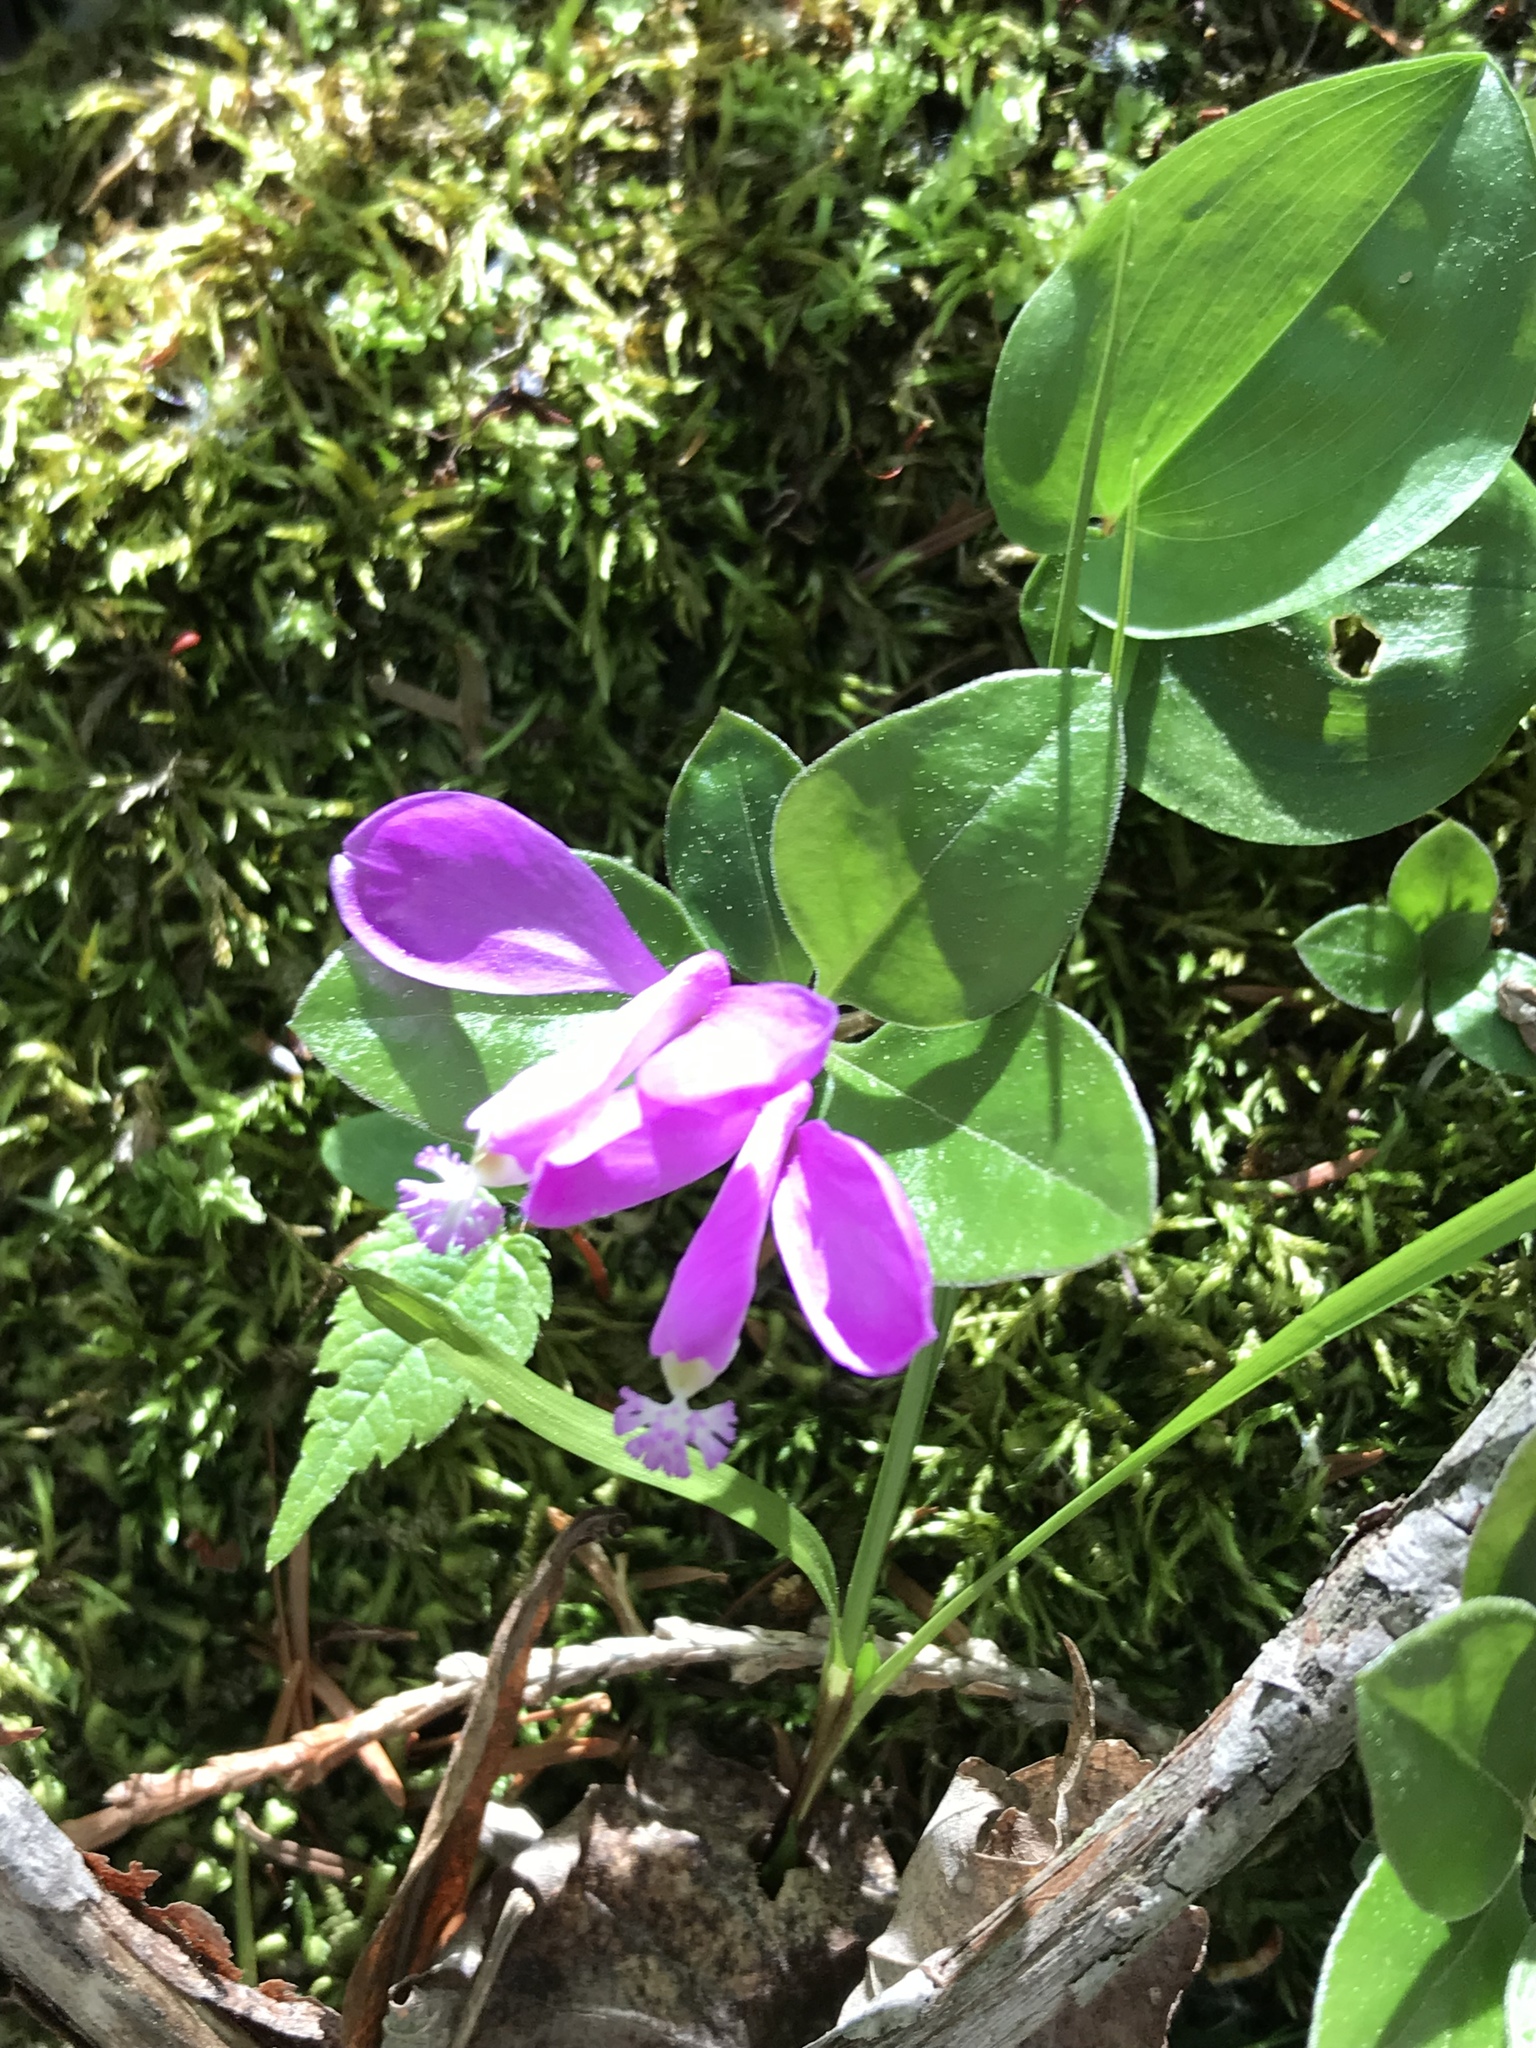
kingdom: Plantae
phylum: Tracheophyta
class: Magnoliopsida
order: Fabales
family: Polygalaceae
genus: Polygaloides
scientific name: Polygaloides paucifolia
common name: Bird-on-the-wing
